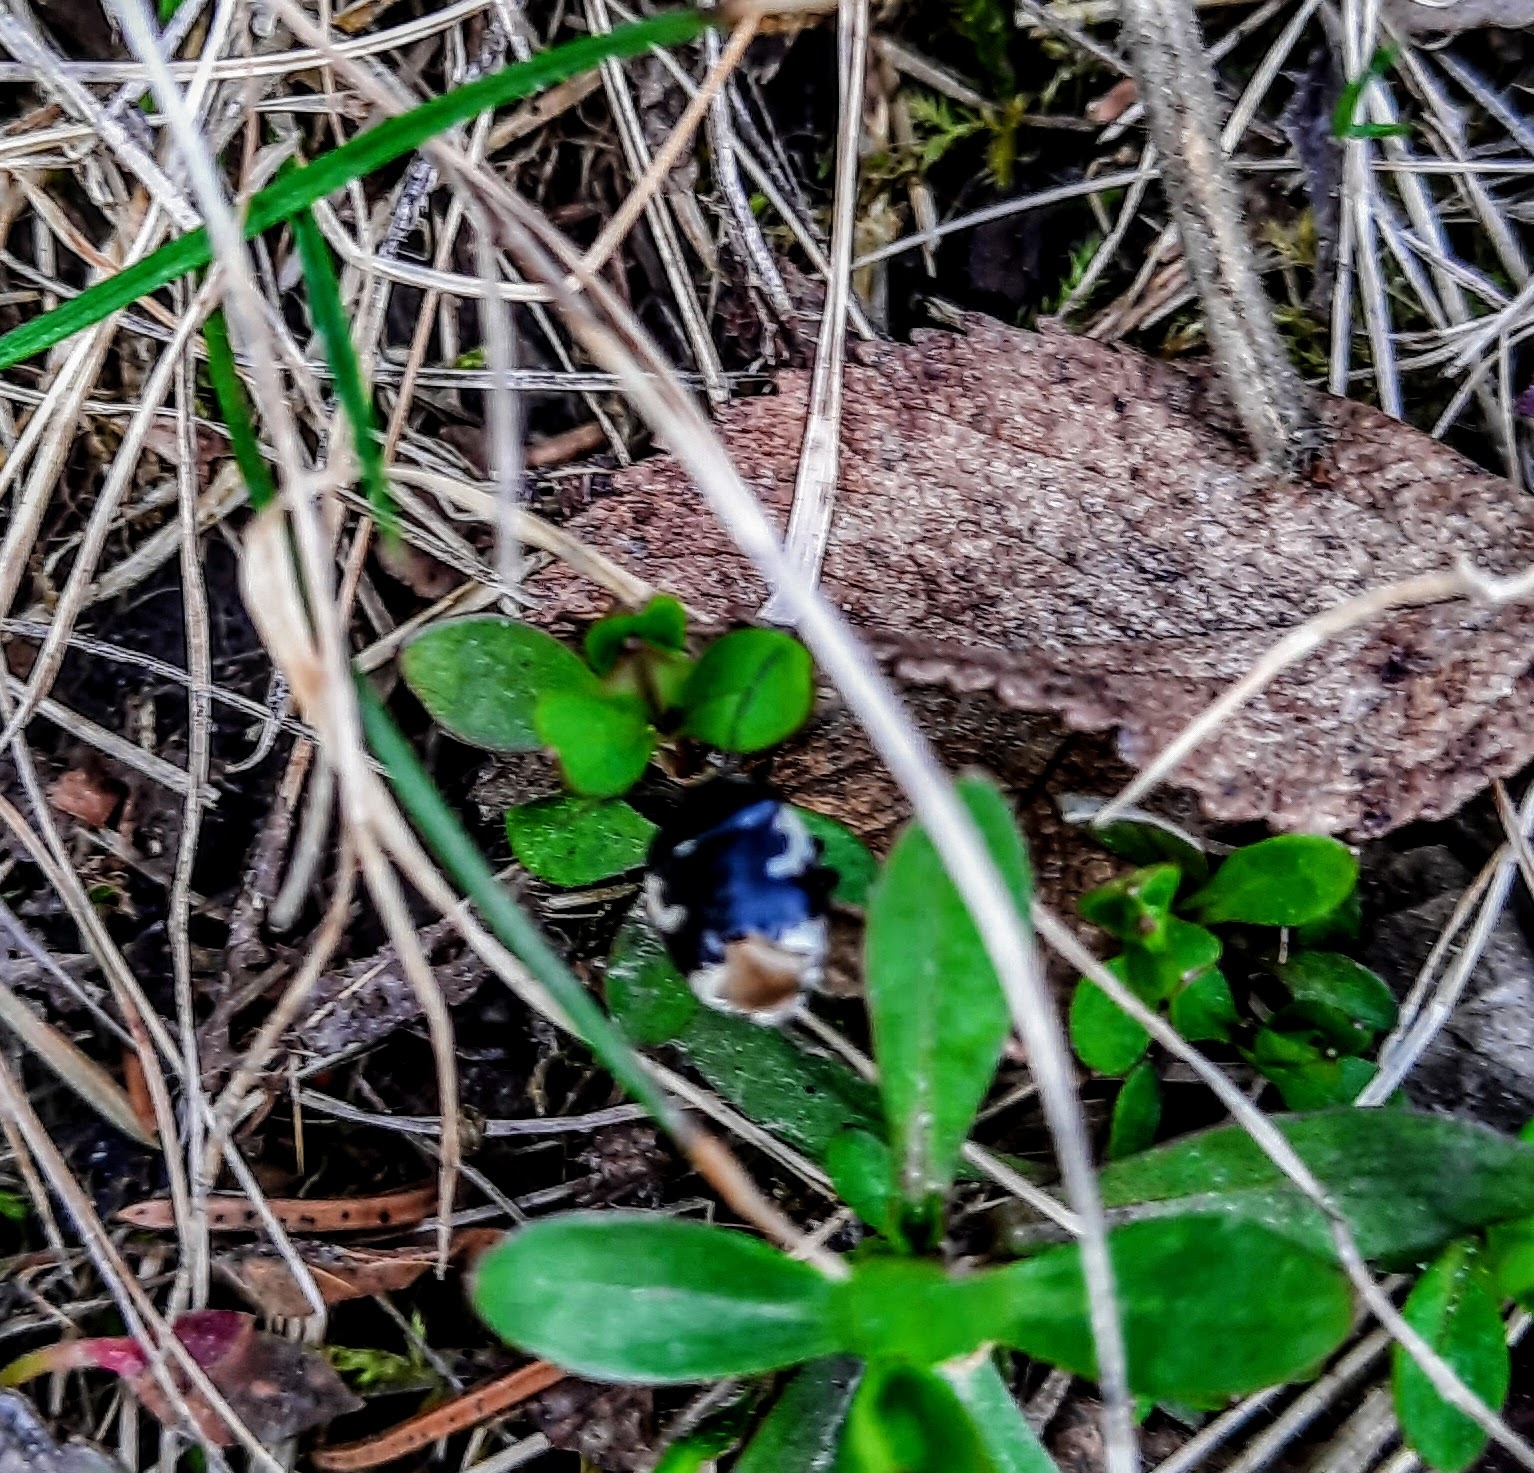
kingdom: Animalia
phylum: Arthropoda
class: Insecta
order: Hemiptera
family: Cydnidae
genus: Tritomegas
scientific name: Tritomegas bicolor
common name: Pied shieldbug
